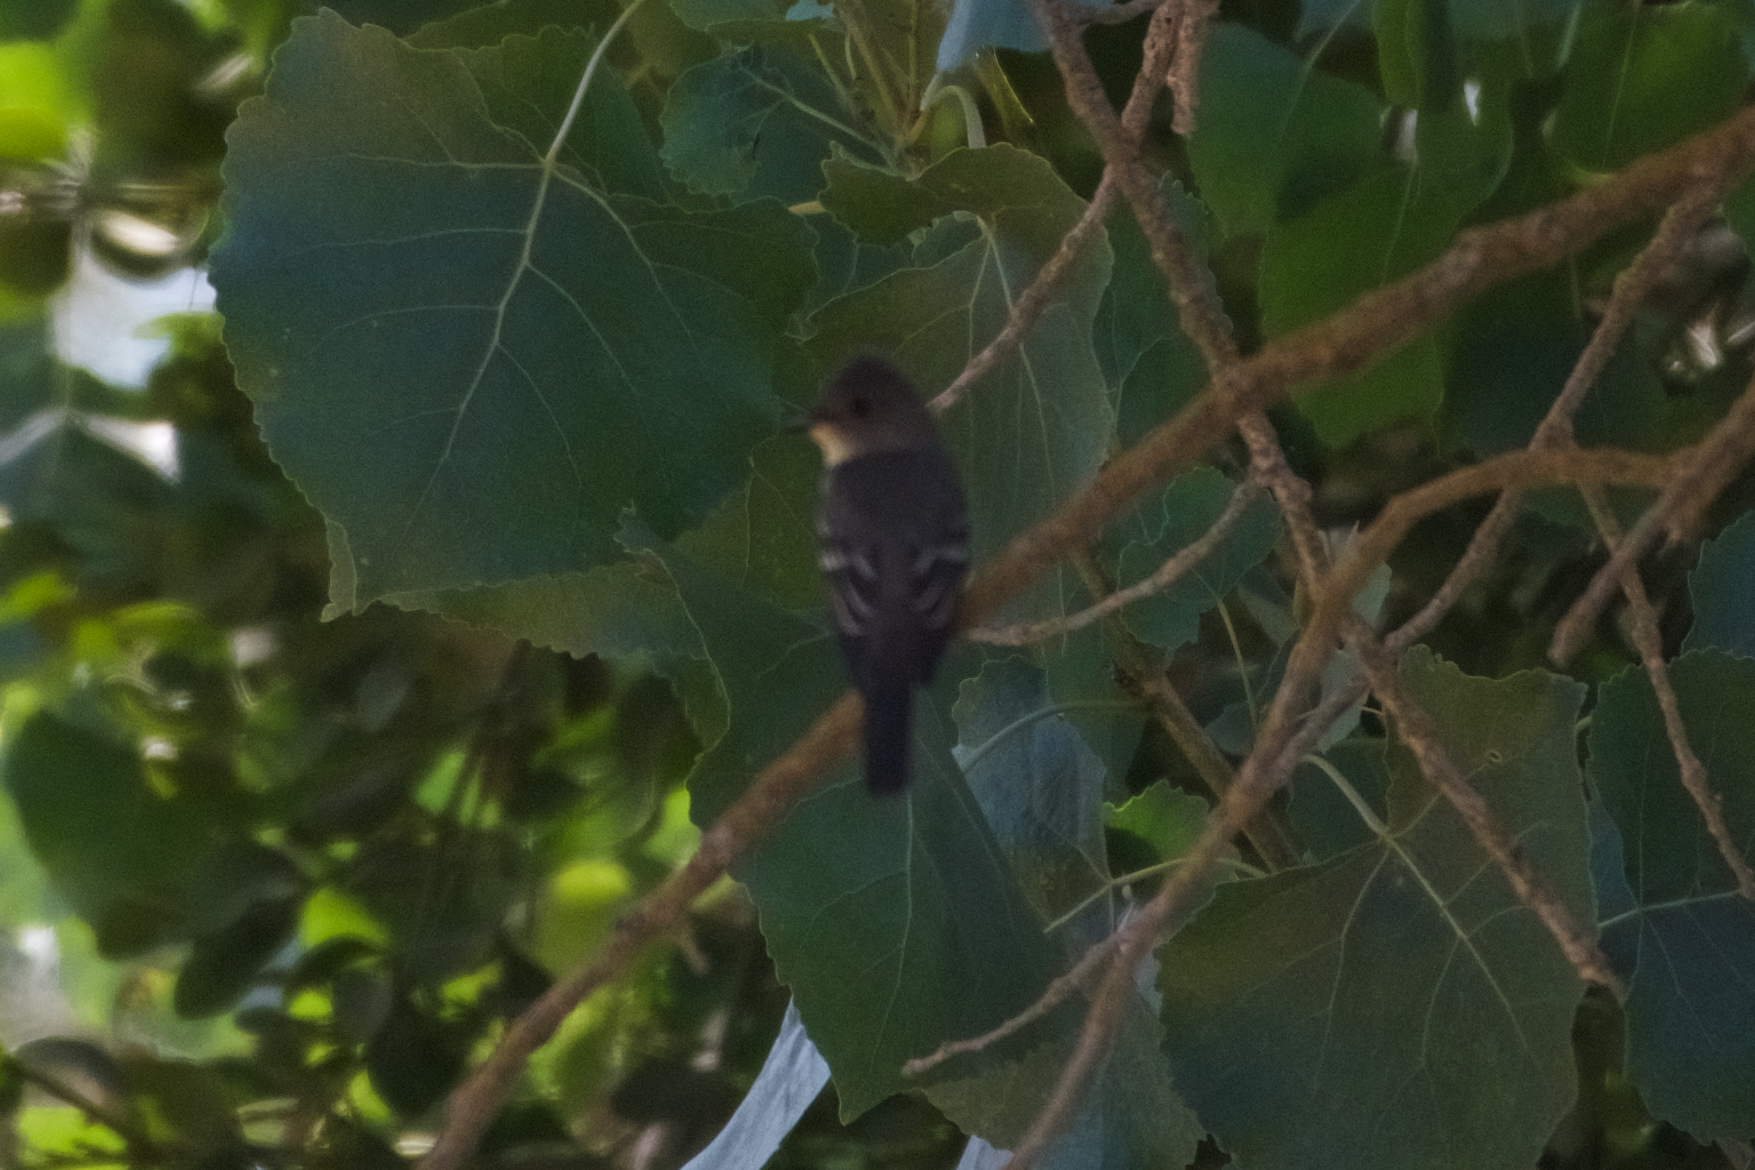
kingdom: Animalia
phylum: Chordata
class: Aves
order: Passeriformes
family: Tyrannidae
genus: Contopus
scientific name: Contopus sordidulus
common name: Western wood-pewee
